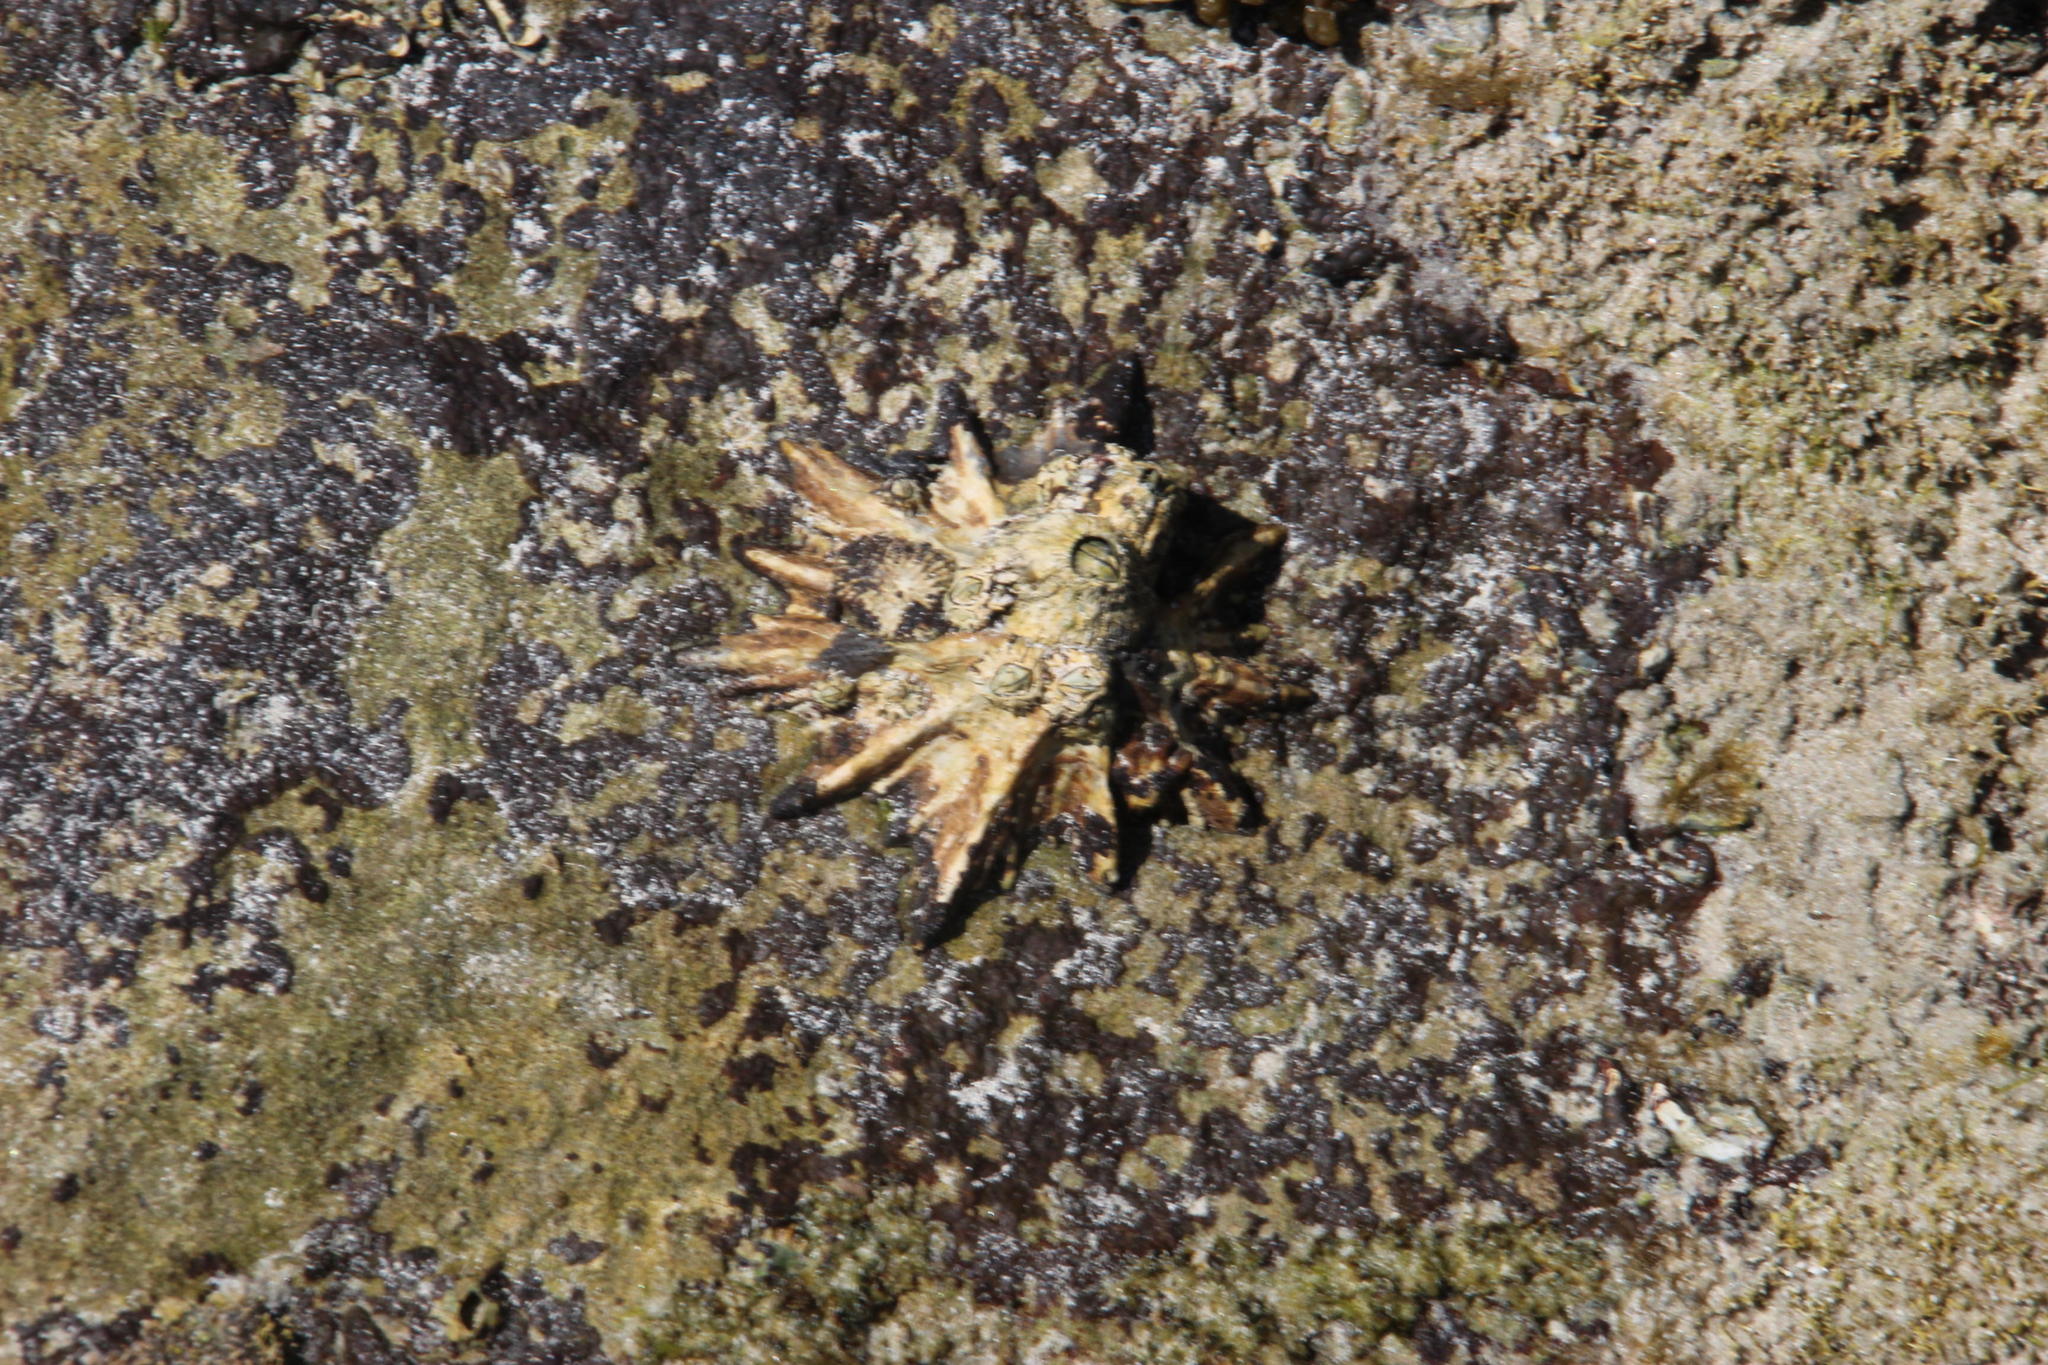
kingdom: Animalia
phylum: Mollusca
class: Gastropoda
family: Patellidae
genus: Scutellastra
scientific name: Scutellastra longicosta
